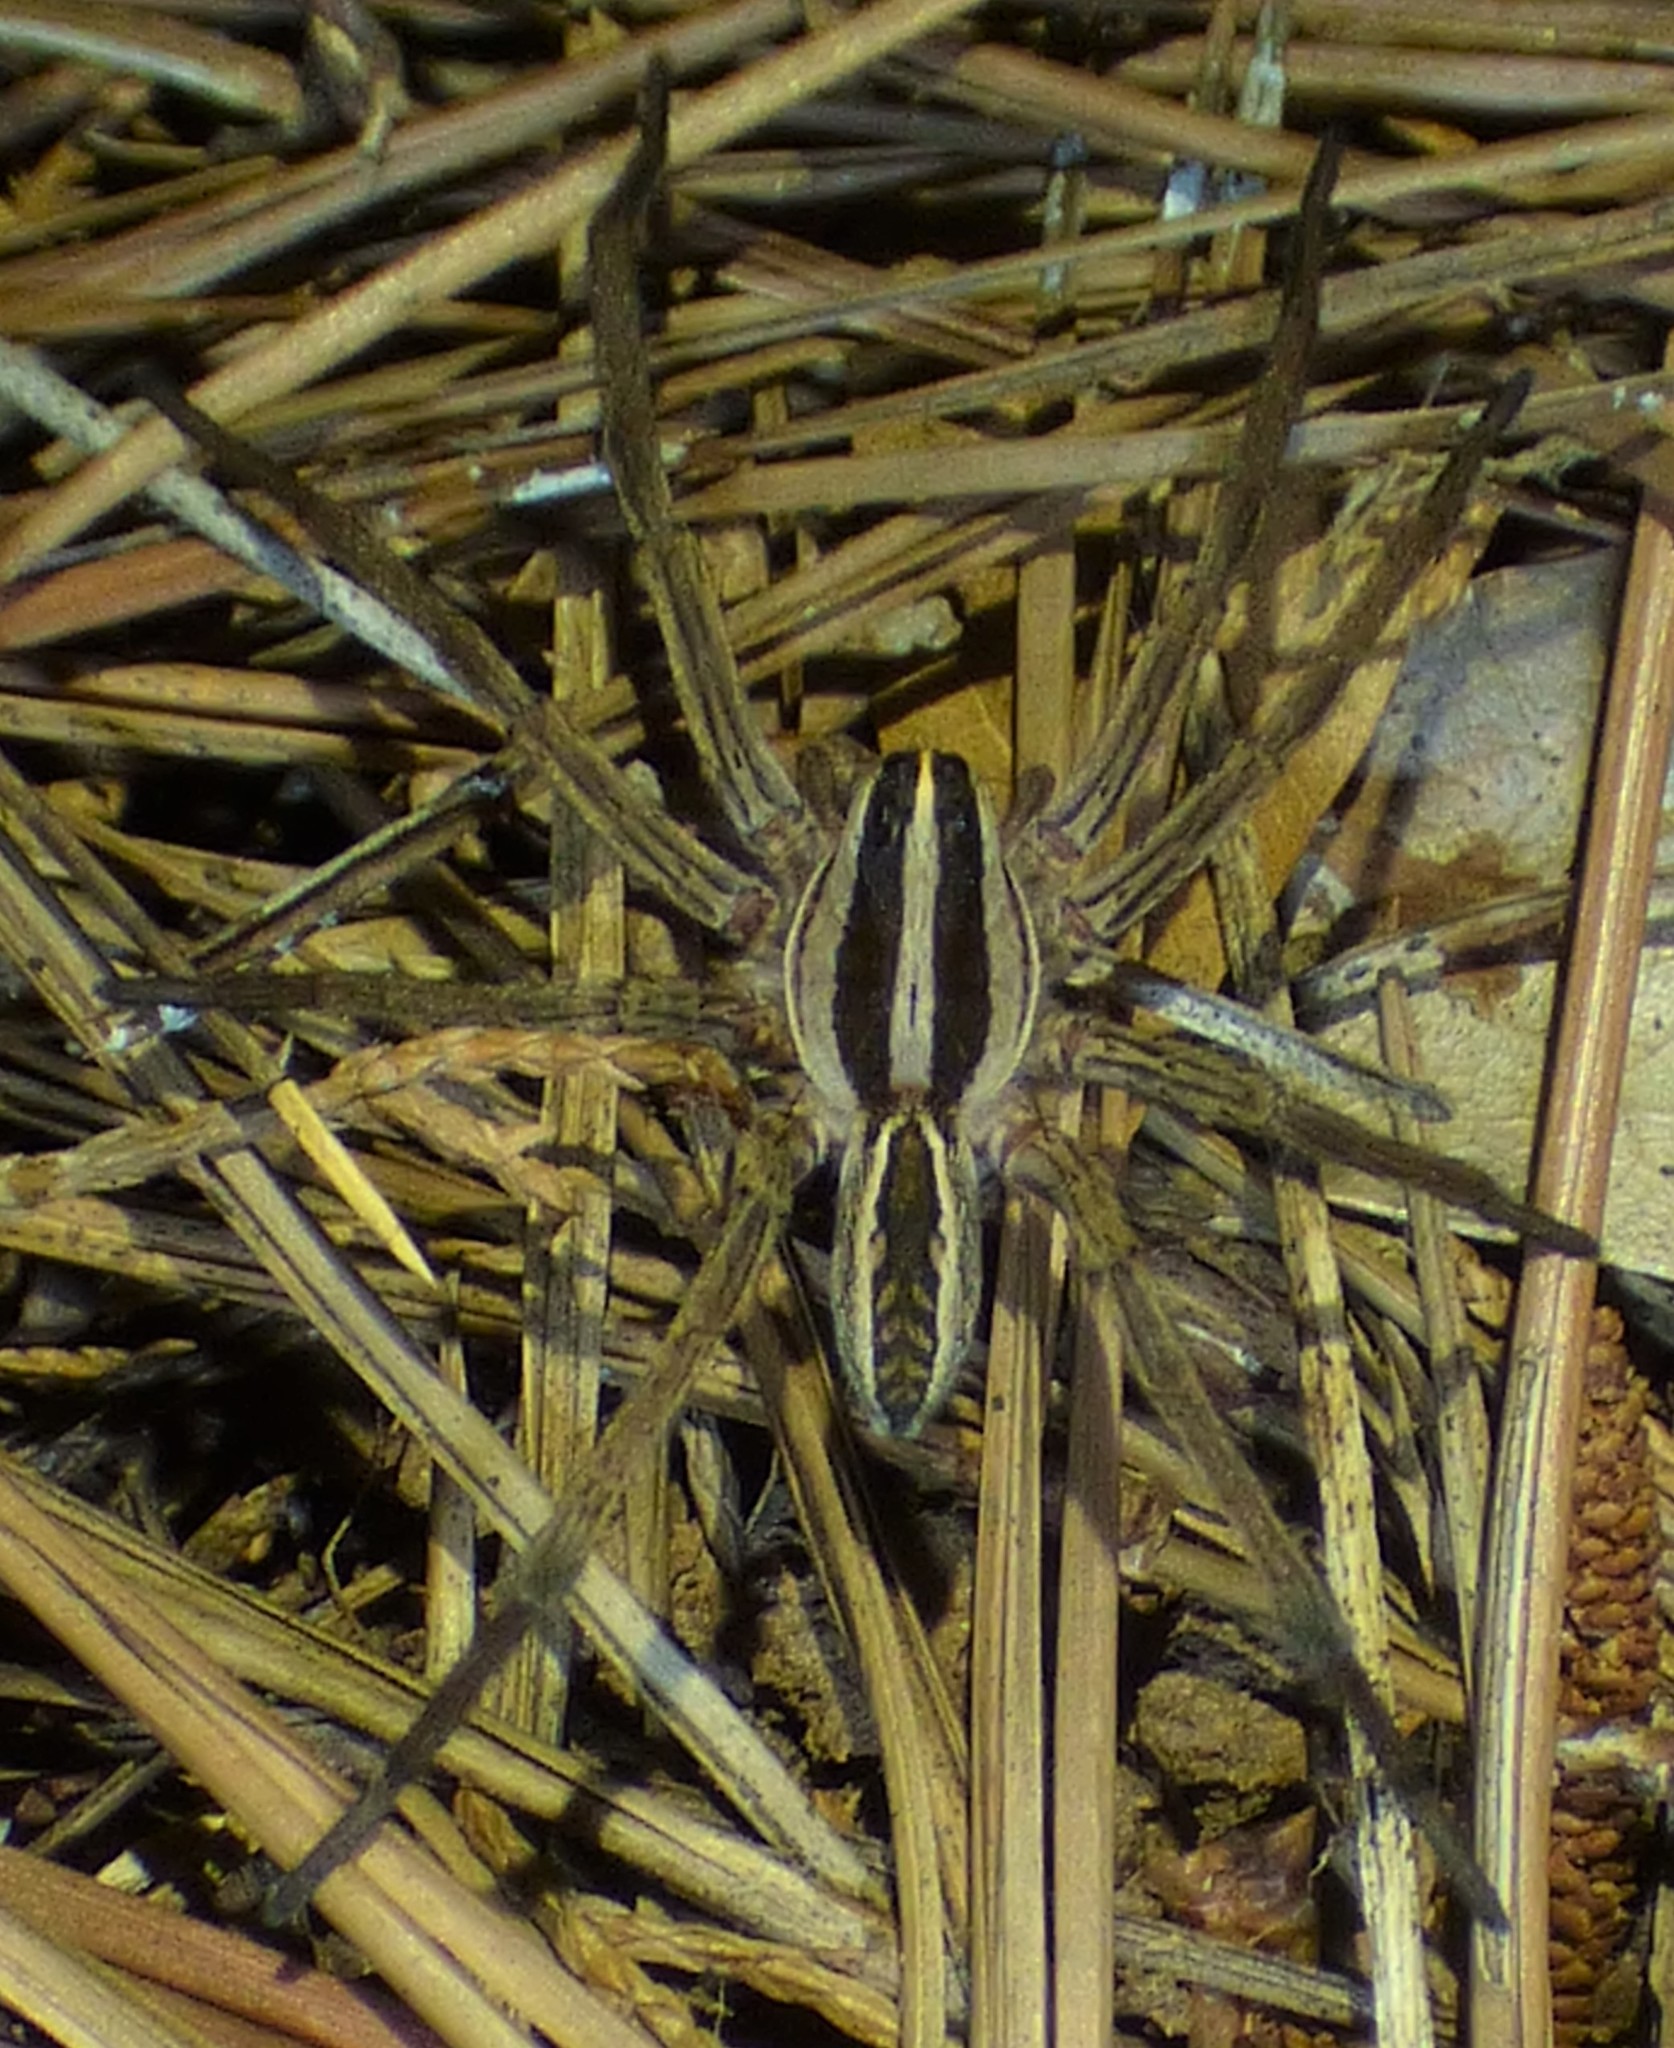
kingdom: Animalia
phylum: Arthropoda
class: Arachnida
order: Araneae
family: Lycosidae
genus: Rabidosa
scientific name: Rabidosa rabida
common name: Rabid wolf spider
